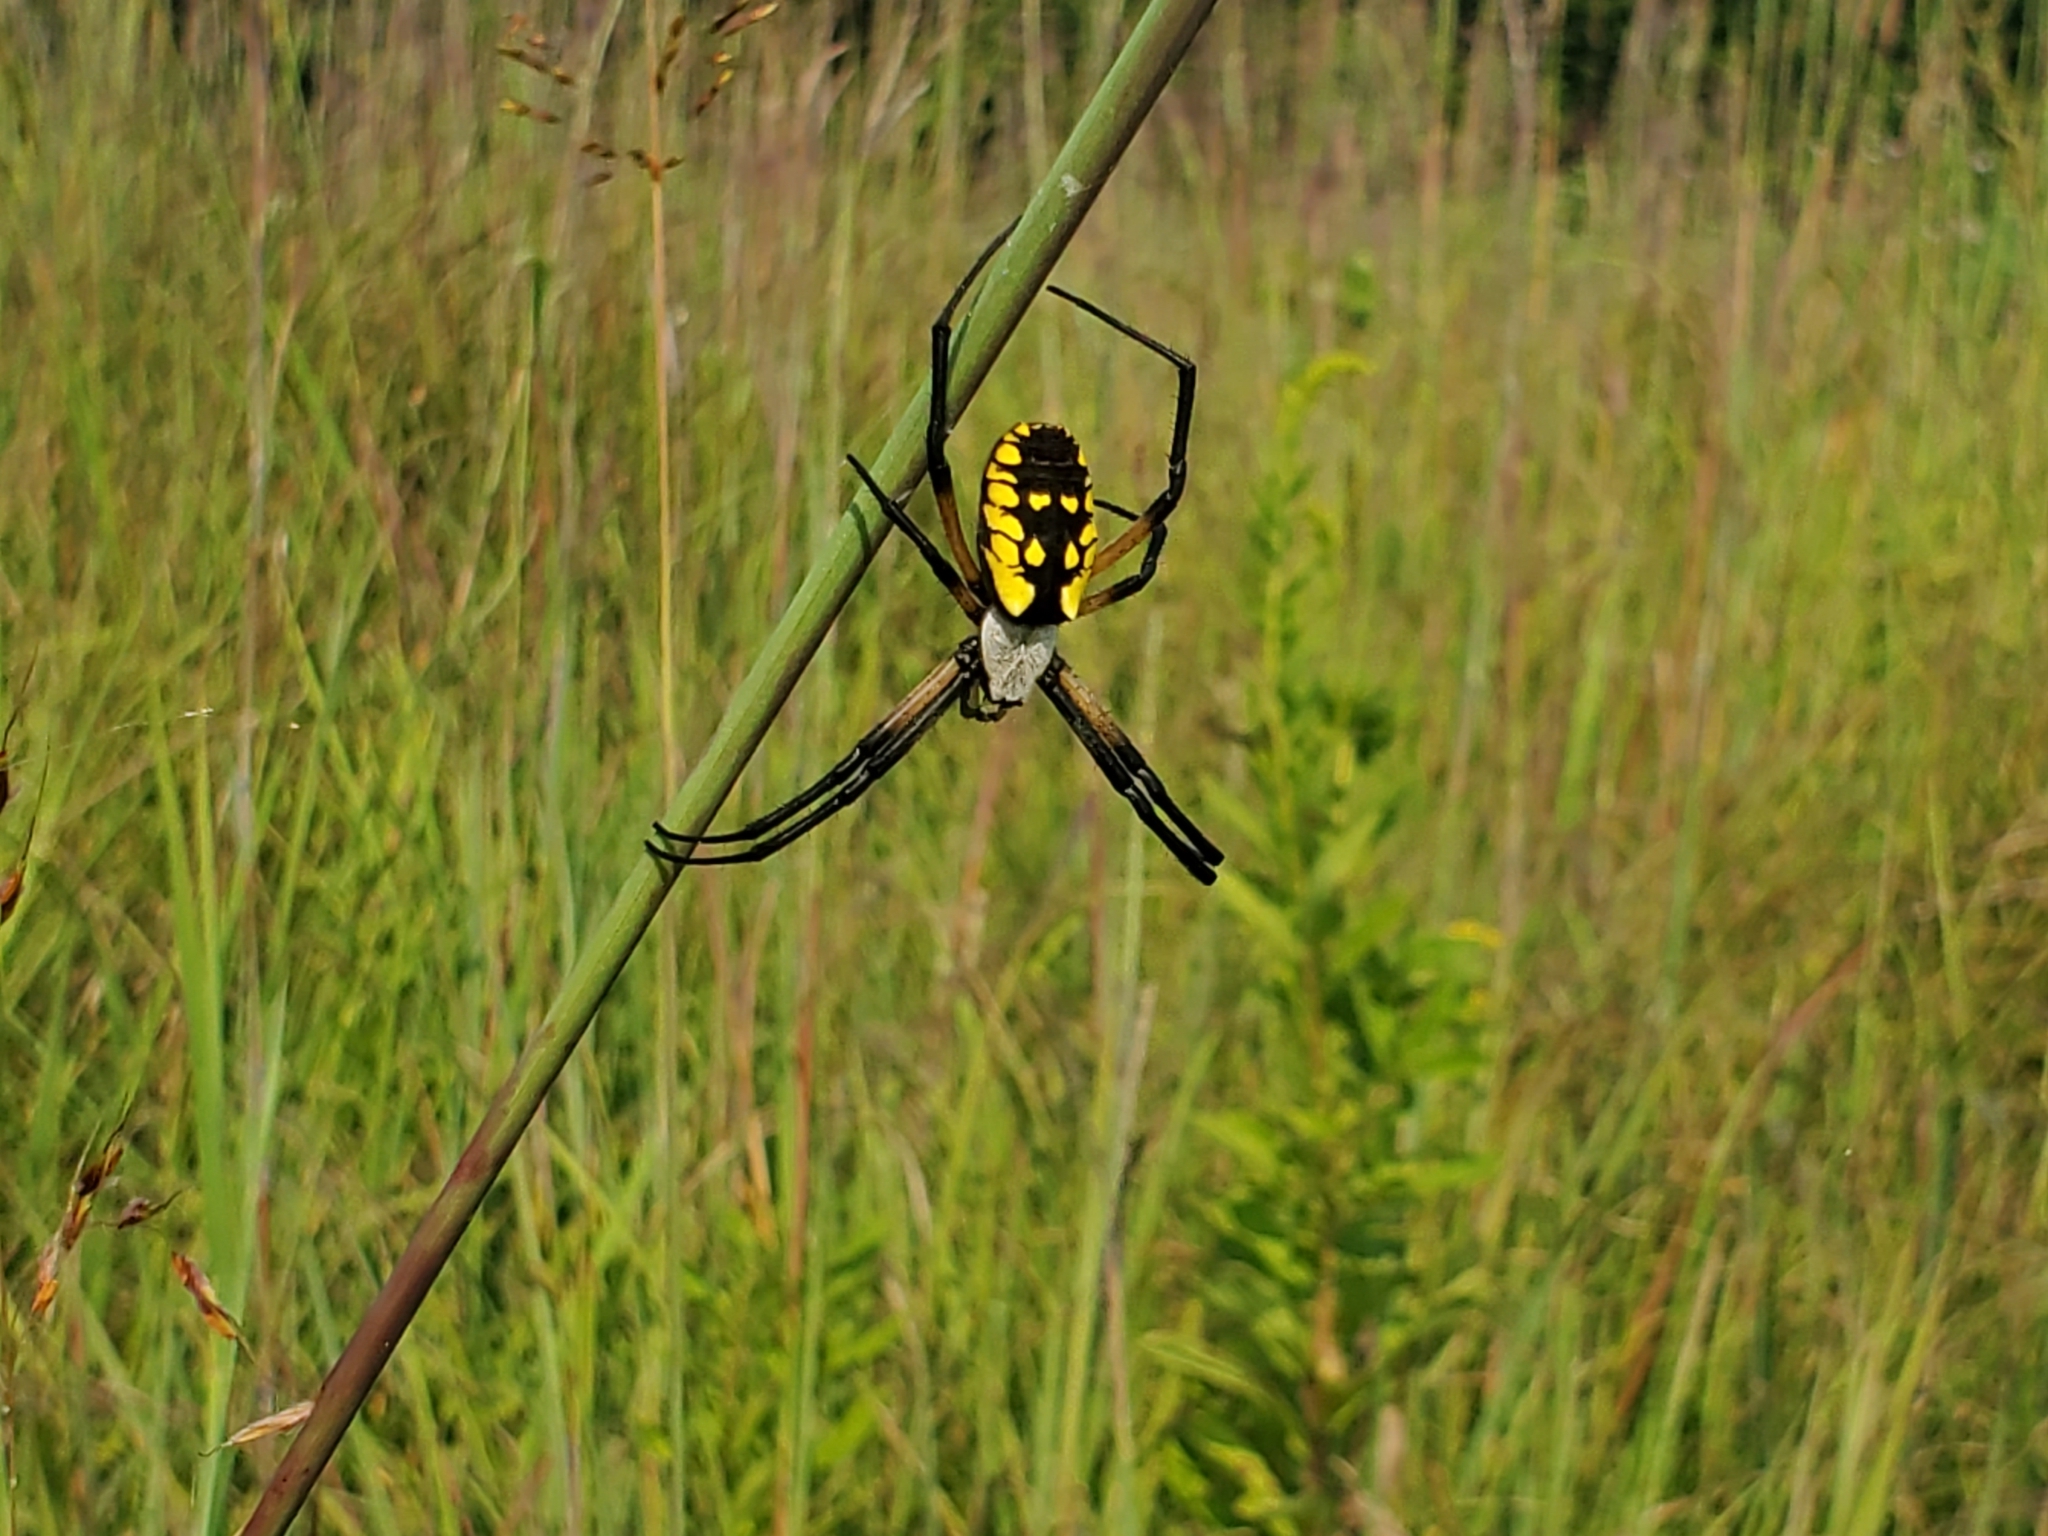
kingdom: Animalia
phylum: Arthropoda
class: Arachnida
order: Araneae
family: Araneidae
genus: Argiope
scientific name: Argiope aurantia
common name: Orb weavers
